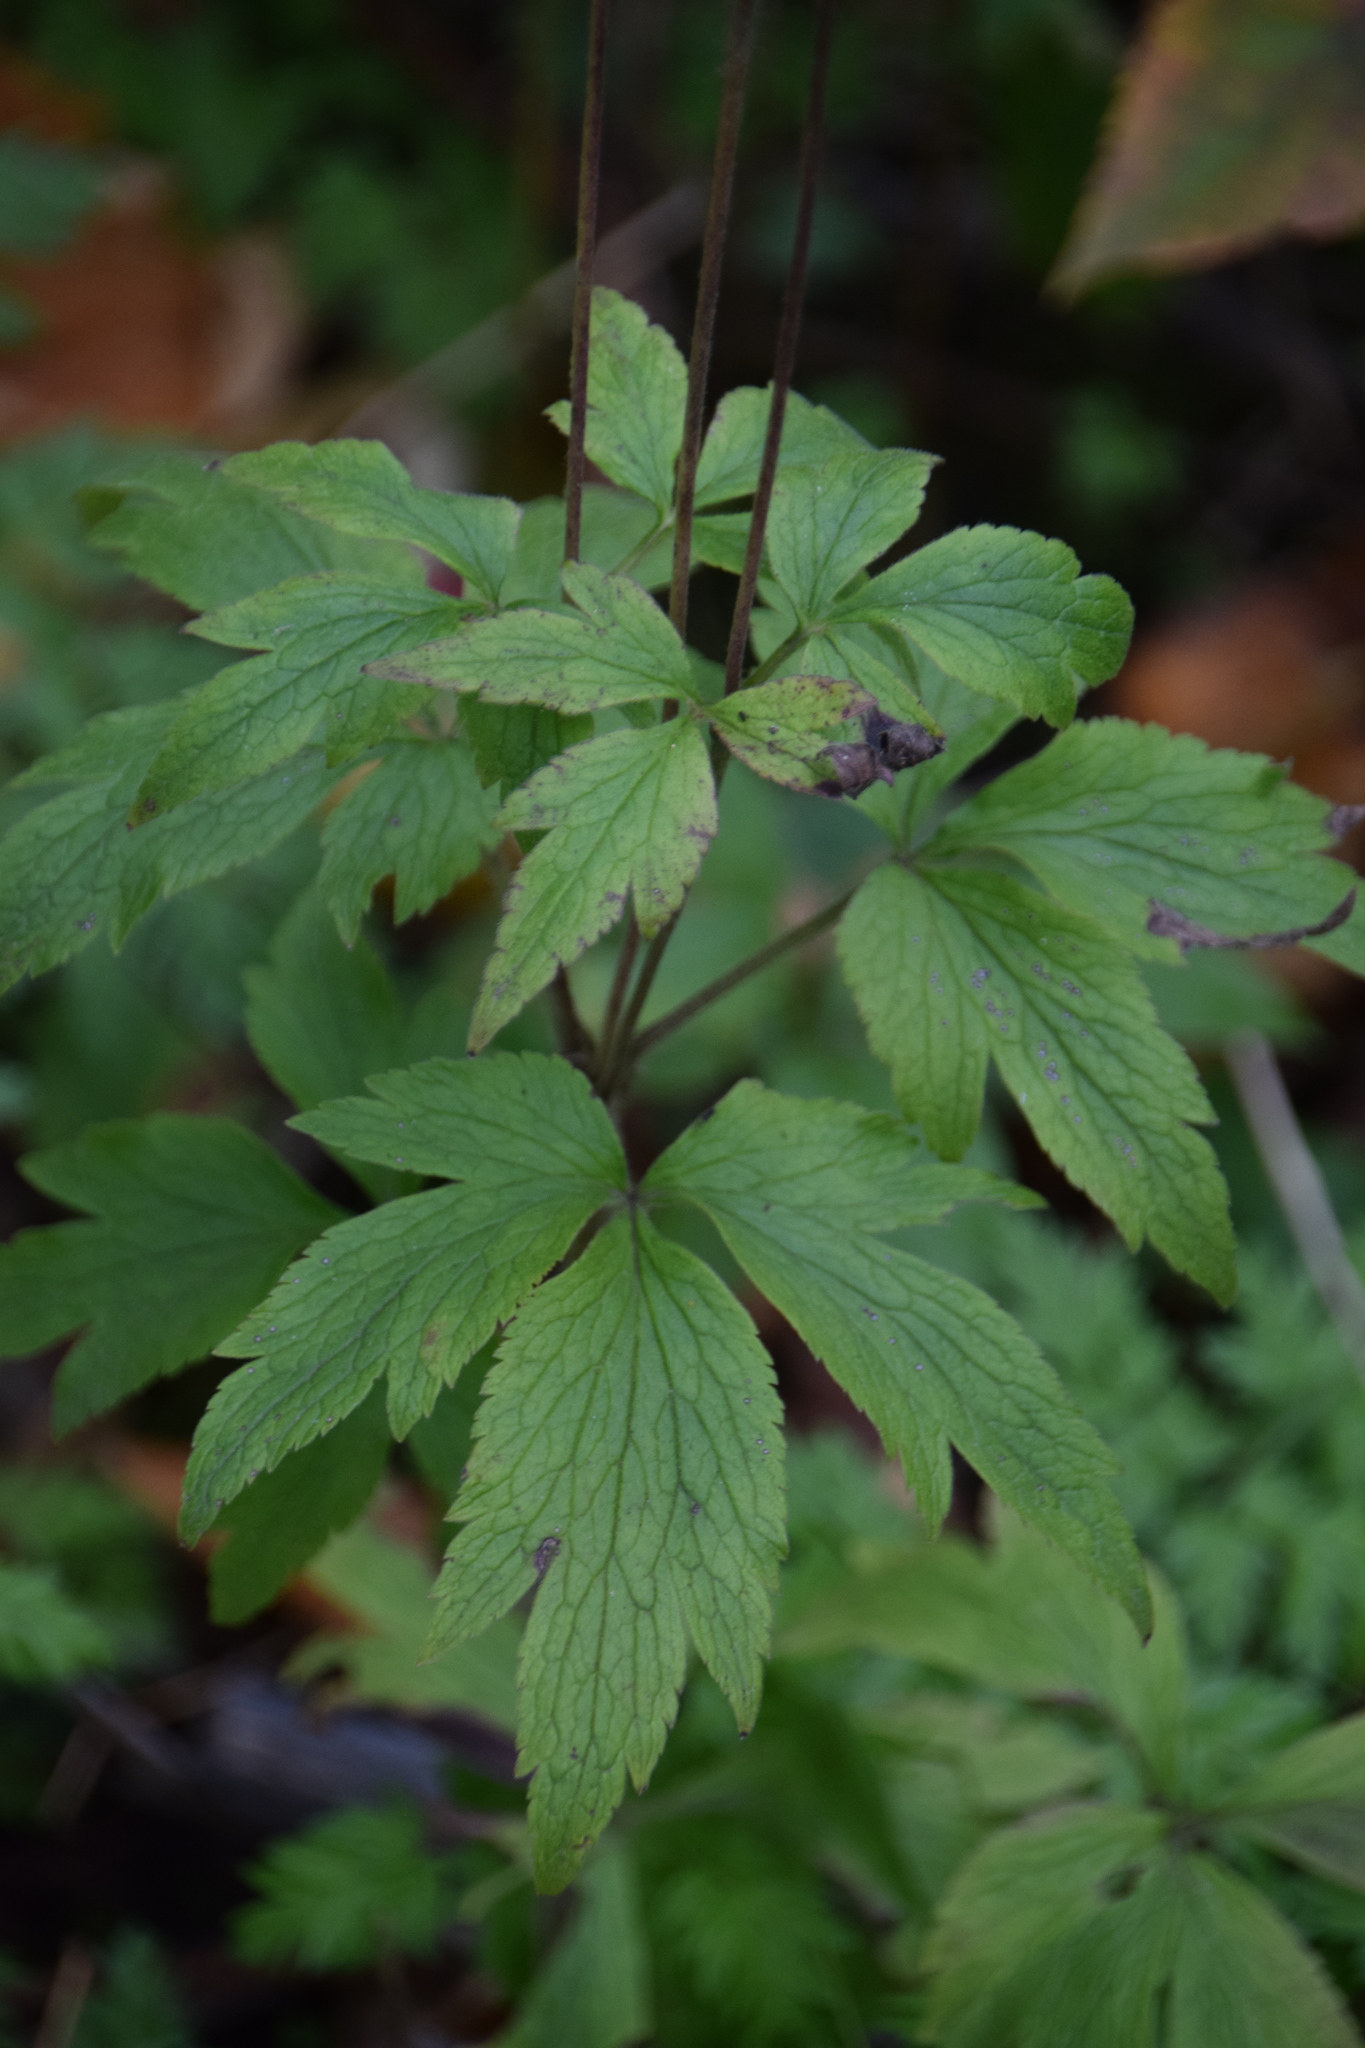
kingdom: Plantae
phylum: Tracheophyta
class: Magnoliopsida
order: Ranunculales
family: Ranunculaceae
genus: Anemone
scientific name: Anemone virginiana
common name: Tall anemone
